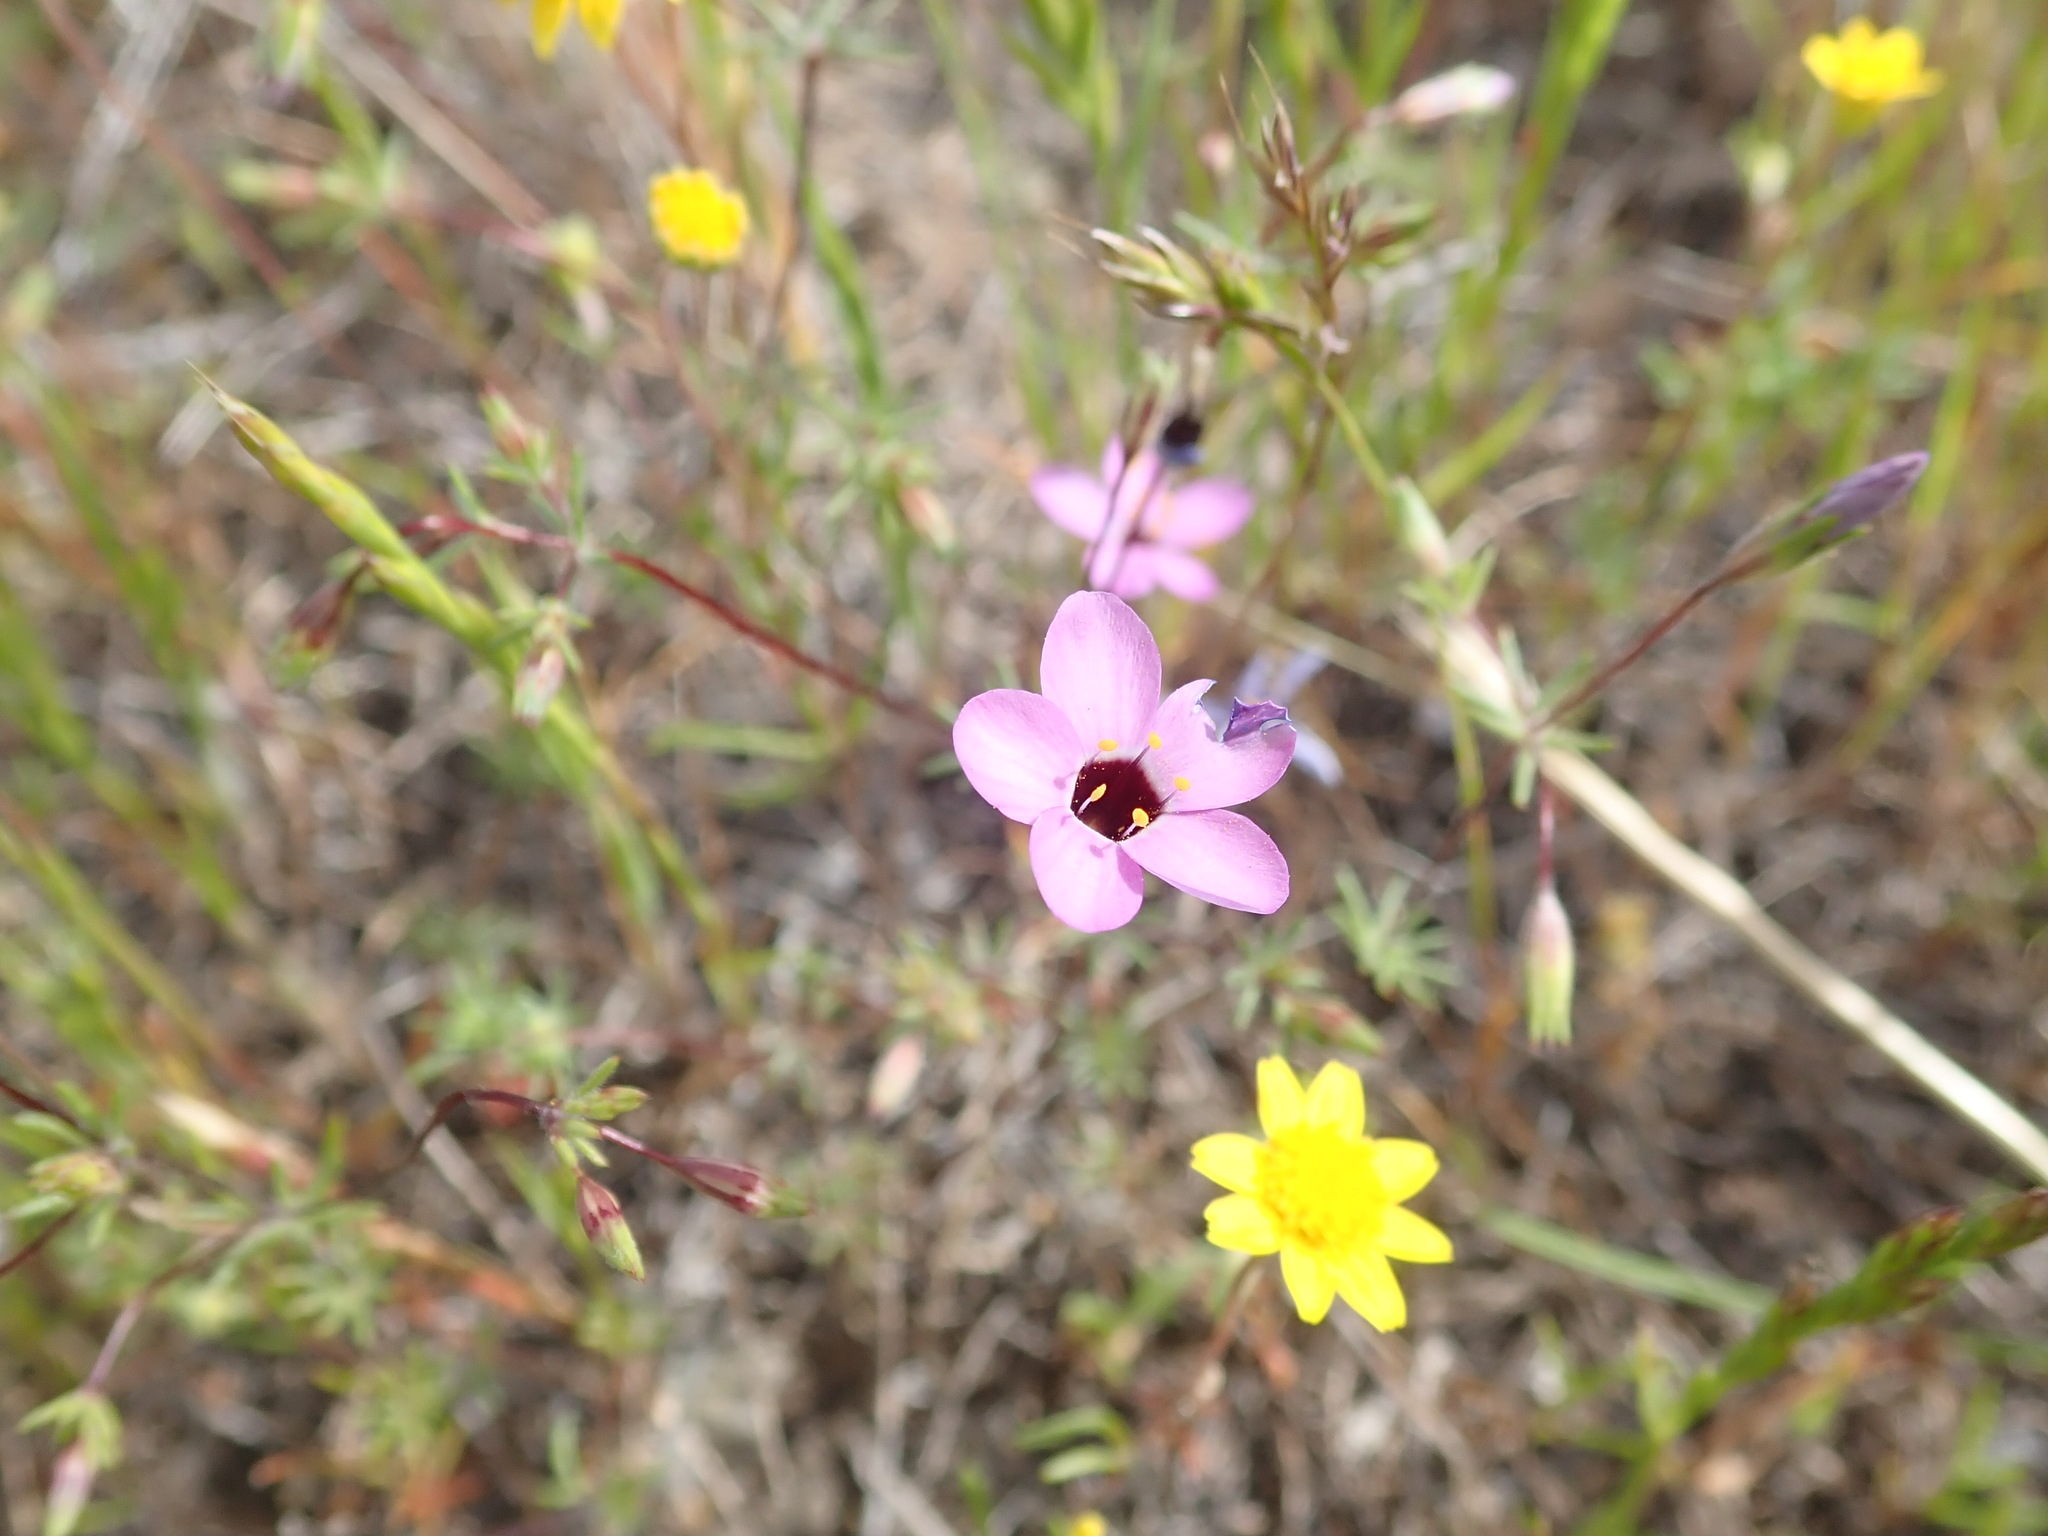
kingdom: Plantae
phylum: Tracheophyta
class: Magnoliopsida
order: Ericales
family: Polemoniaceae
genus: Leptosiphon
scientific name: Leptosiphon ambiguus
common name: Serpentine linanthus
